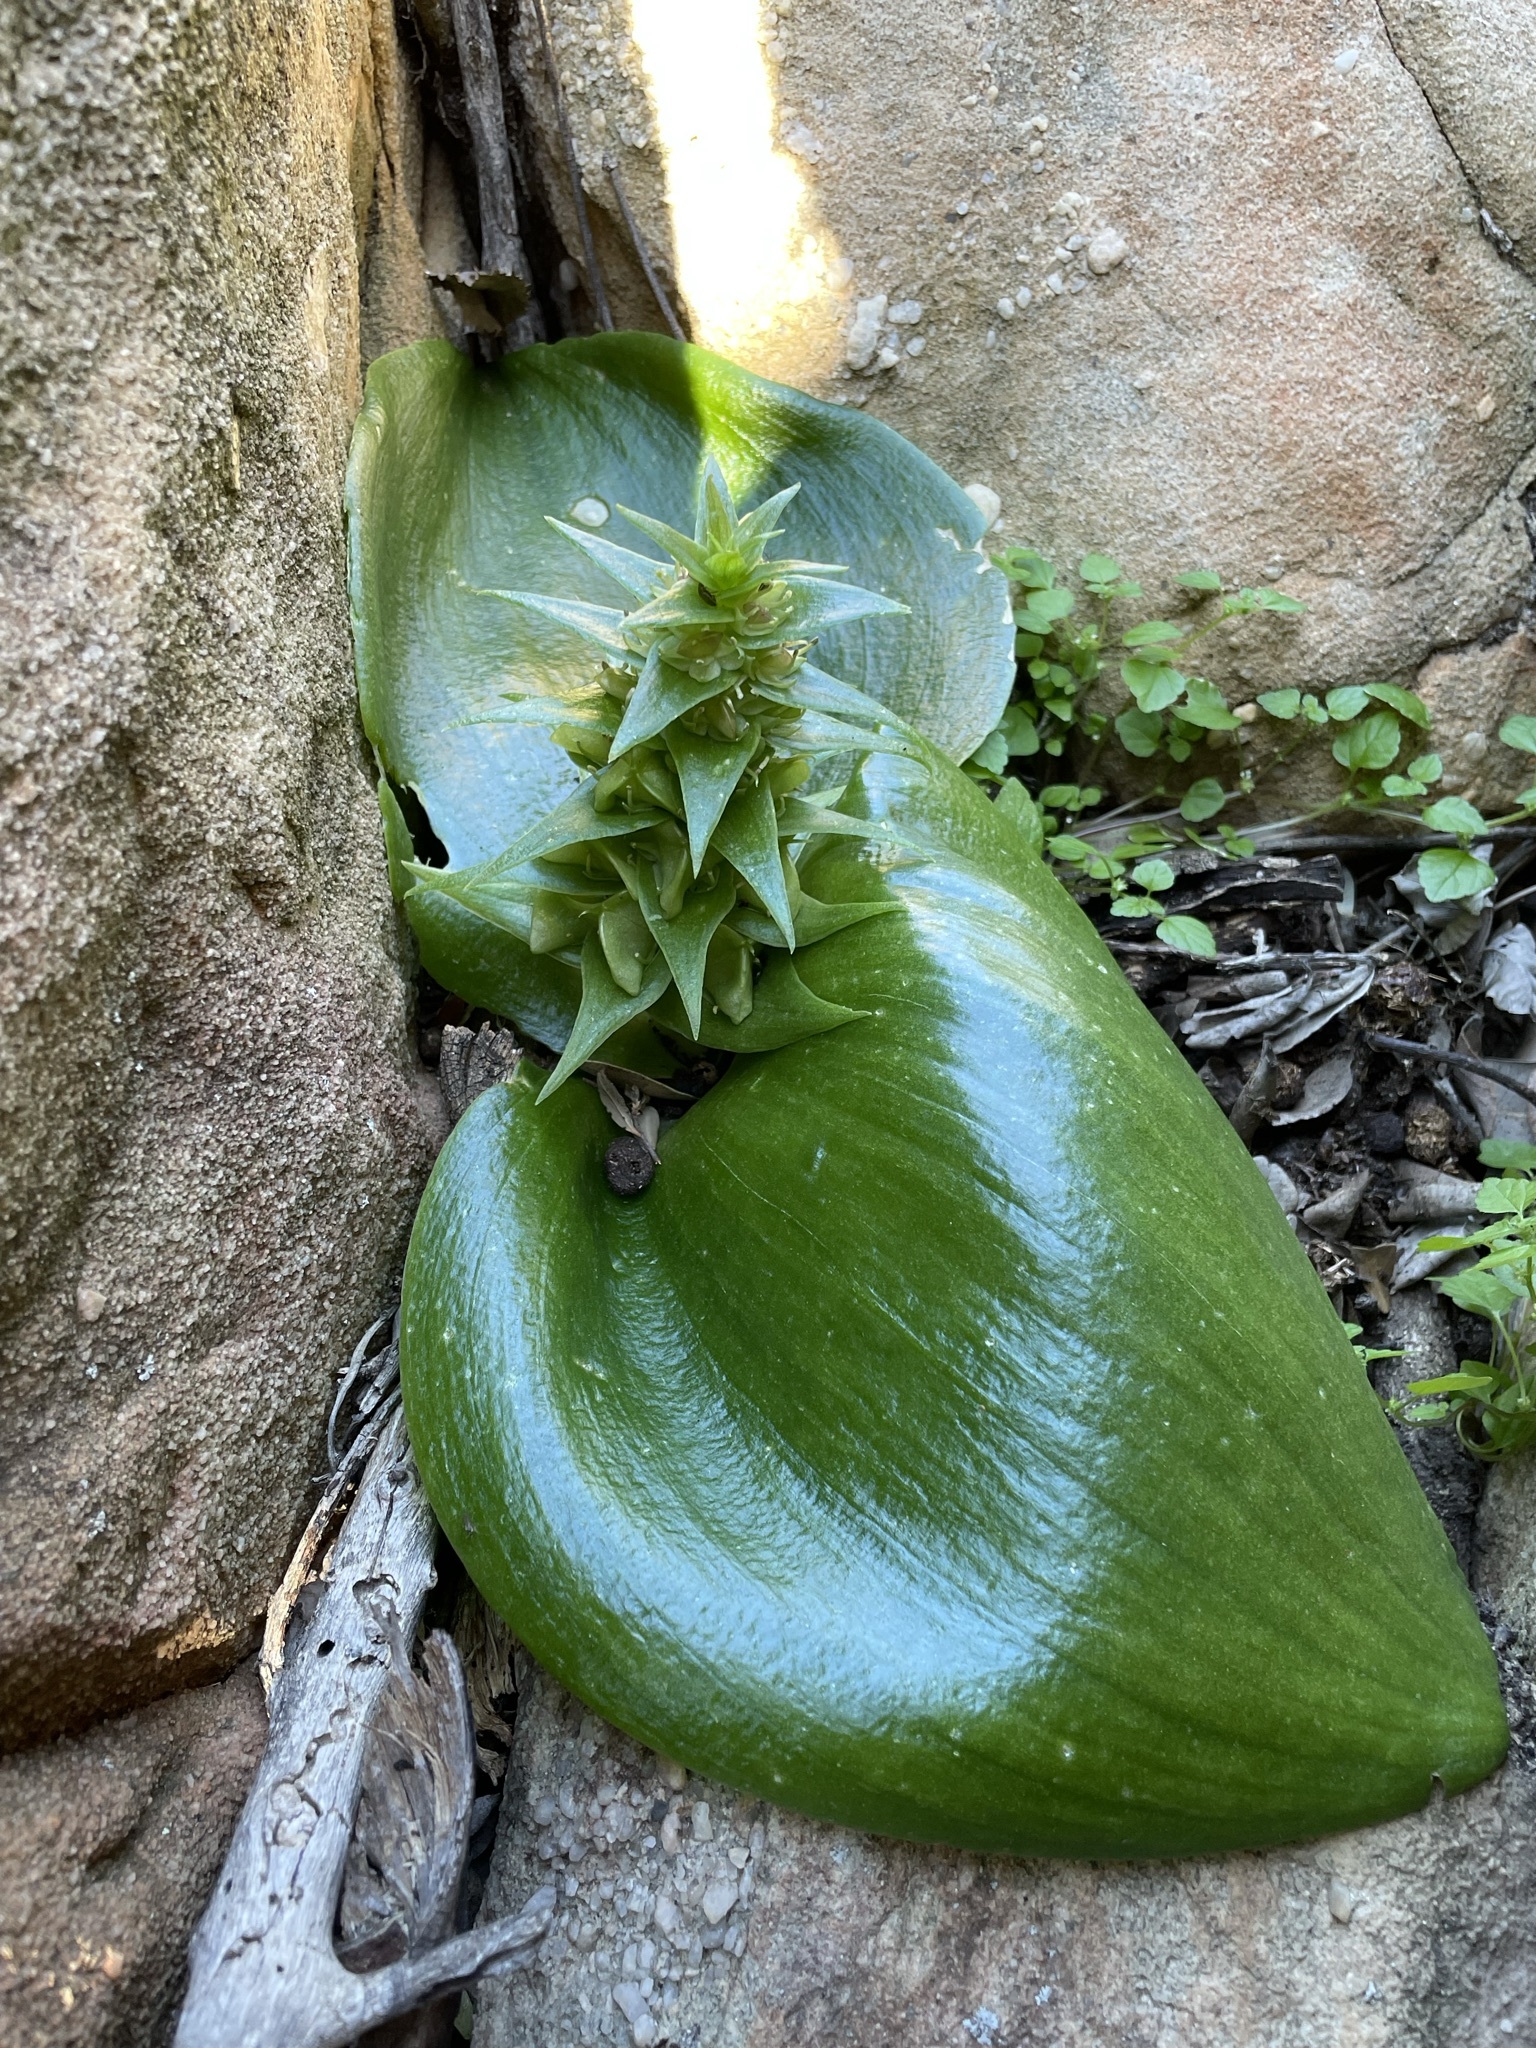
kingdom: Plantae
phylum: Tracheophyta
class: Liliopsida
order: Asparagales
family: Asparagaceae
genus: Massonia
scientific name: Massonia bifolia
